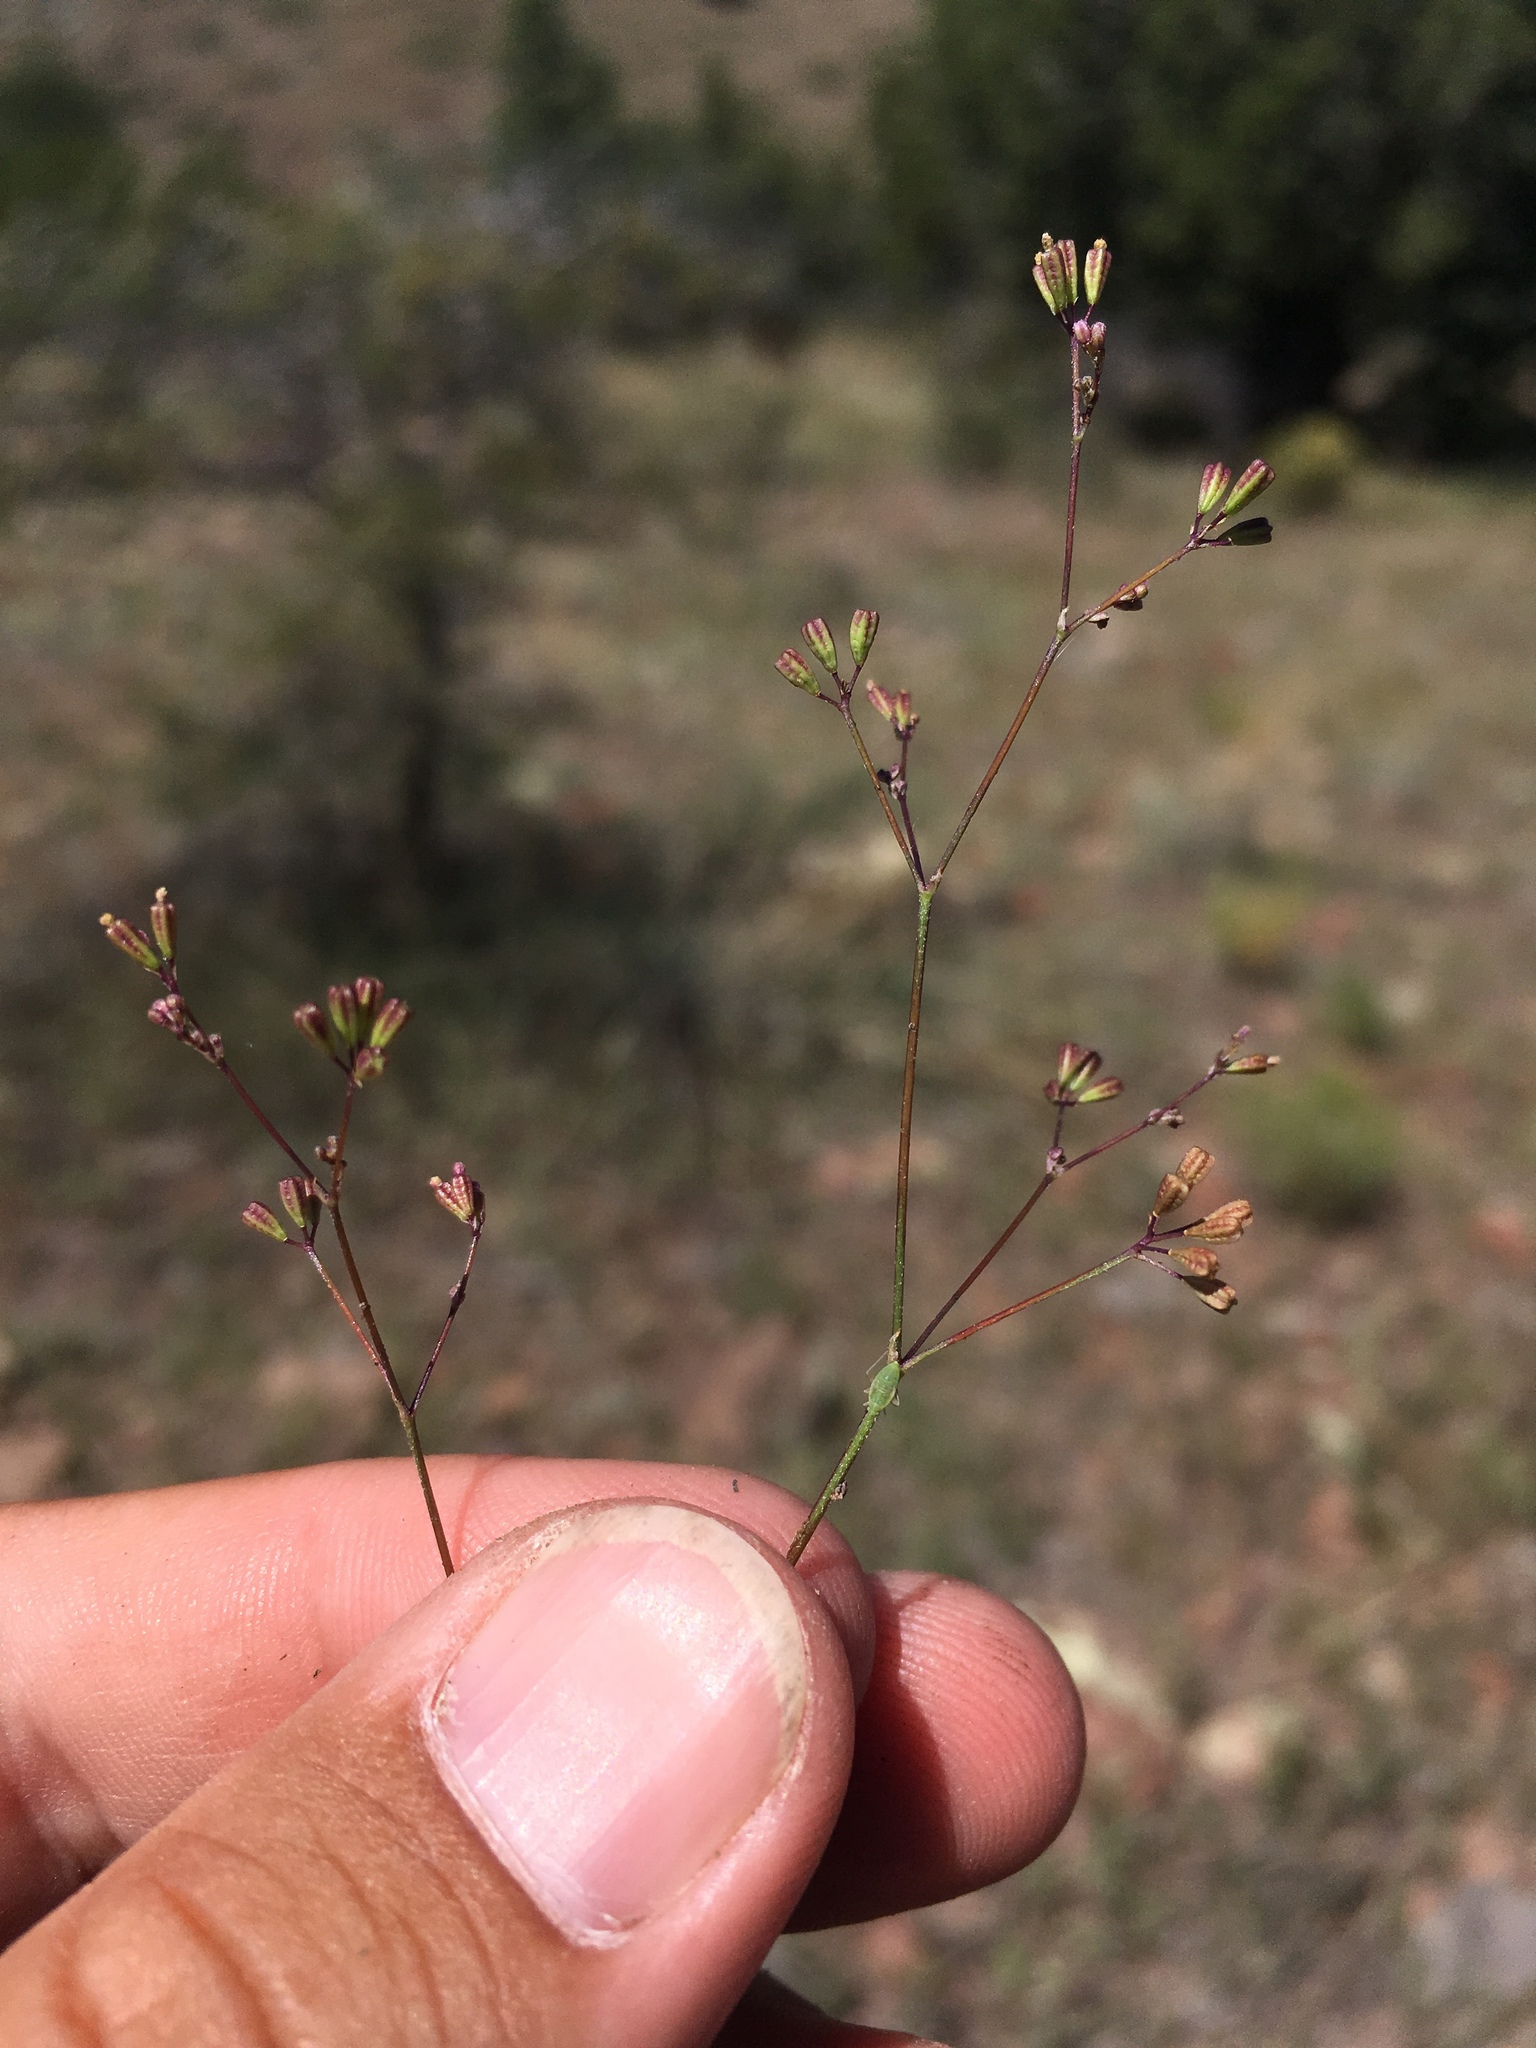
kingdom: Plantae
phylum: Tracheophyta
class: Magnoliopsida
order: Caryophyllales
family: Nyctaginaceae
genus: Boerhavia
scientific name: Boerhavia triquetra
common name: Creeping sticky-stem
